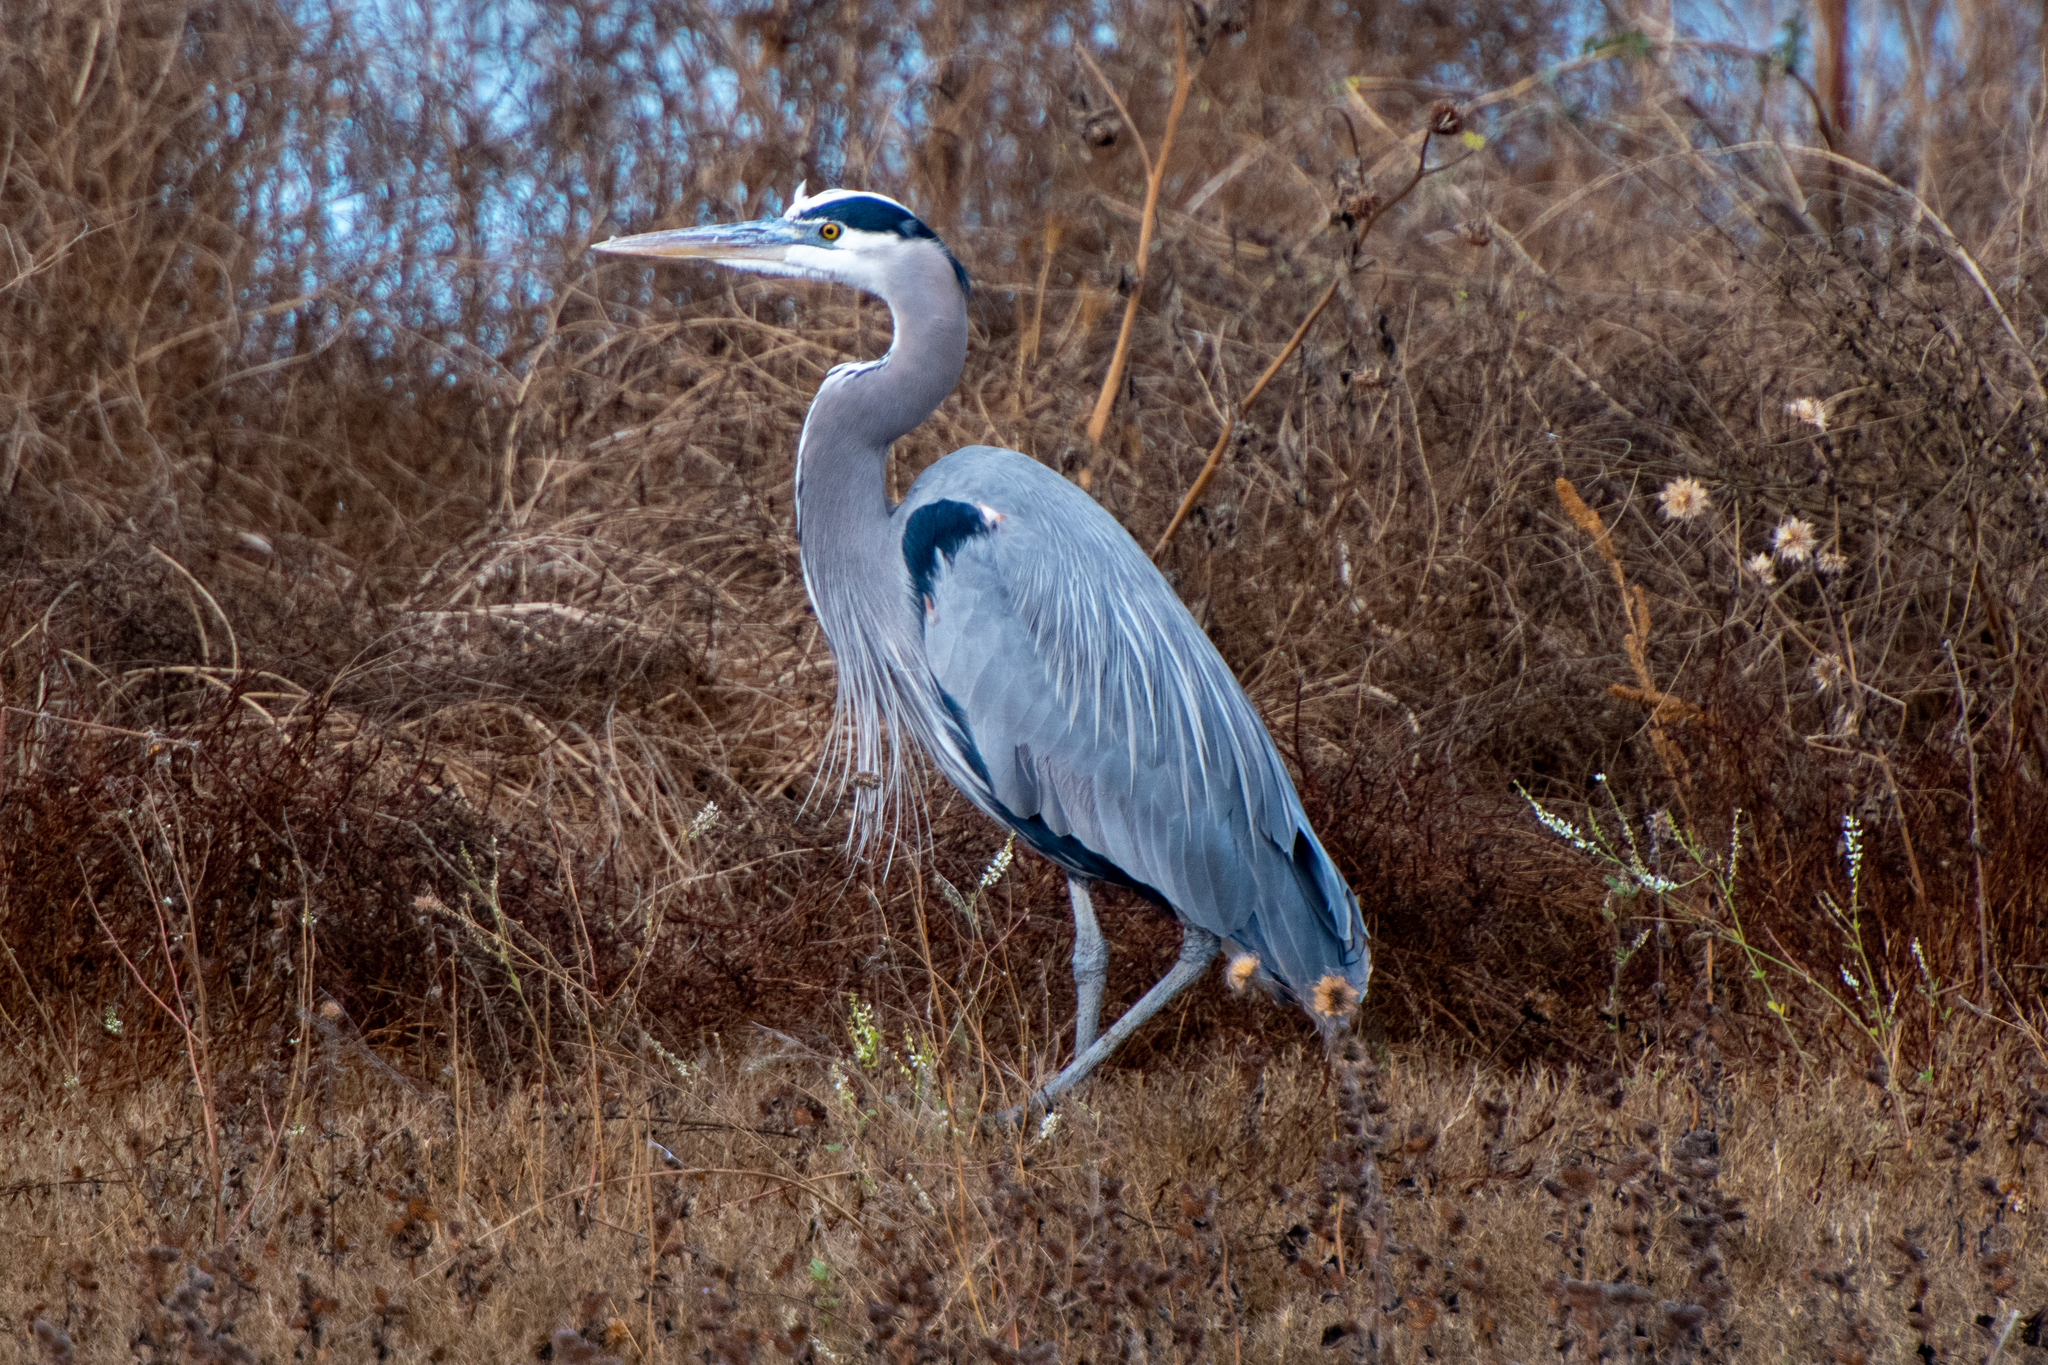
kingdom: Animalia
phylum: Chordata
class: Aves
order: Pelecaniformes
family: Ardeidae
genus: Ardea
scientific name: Ardea herodias
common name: Great blue heron
